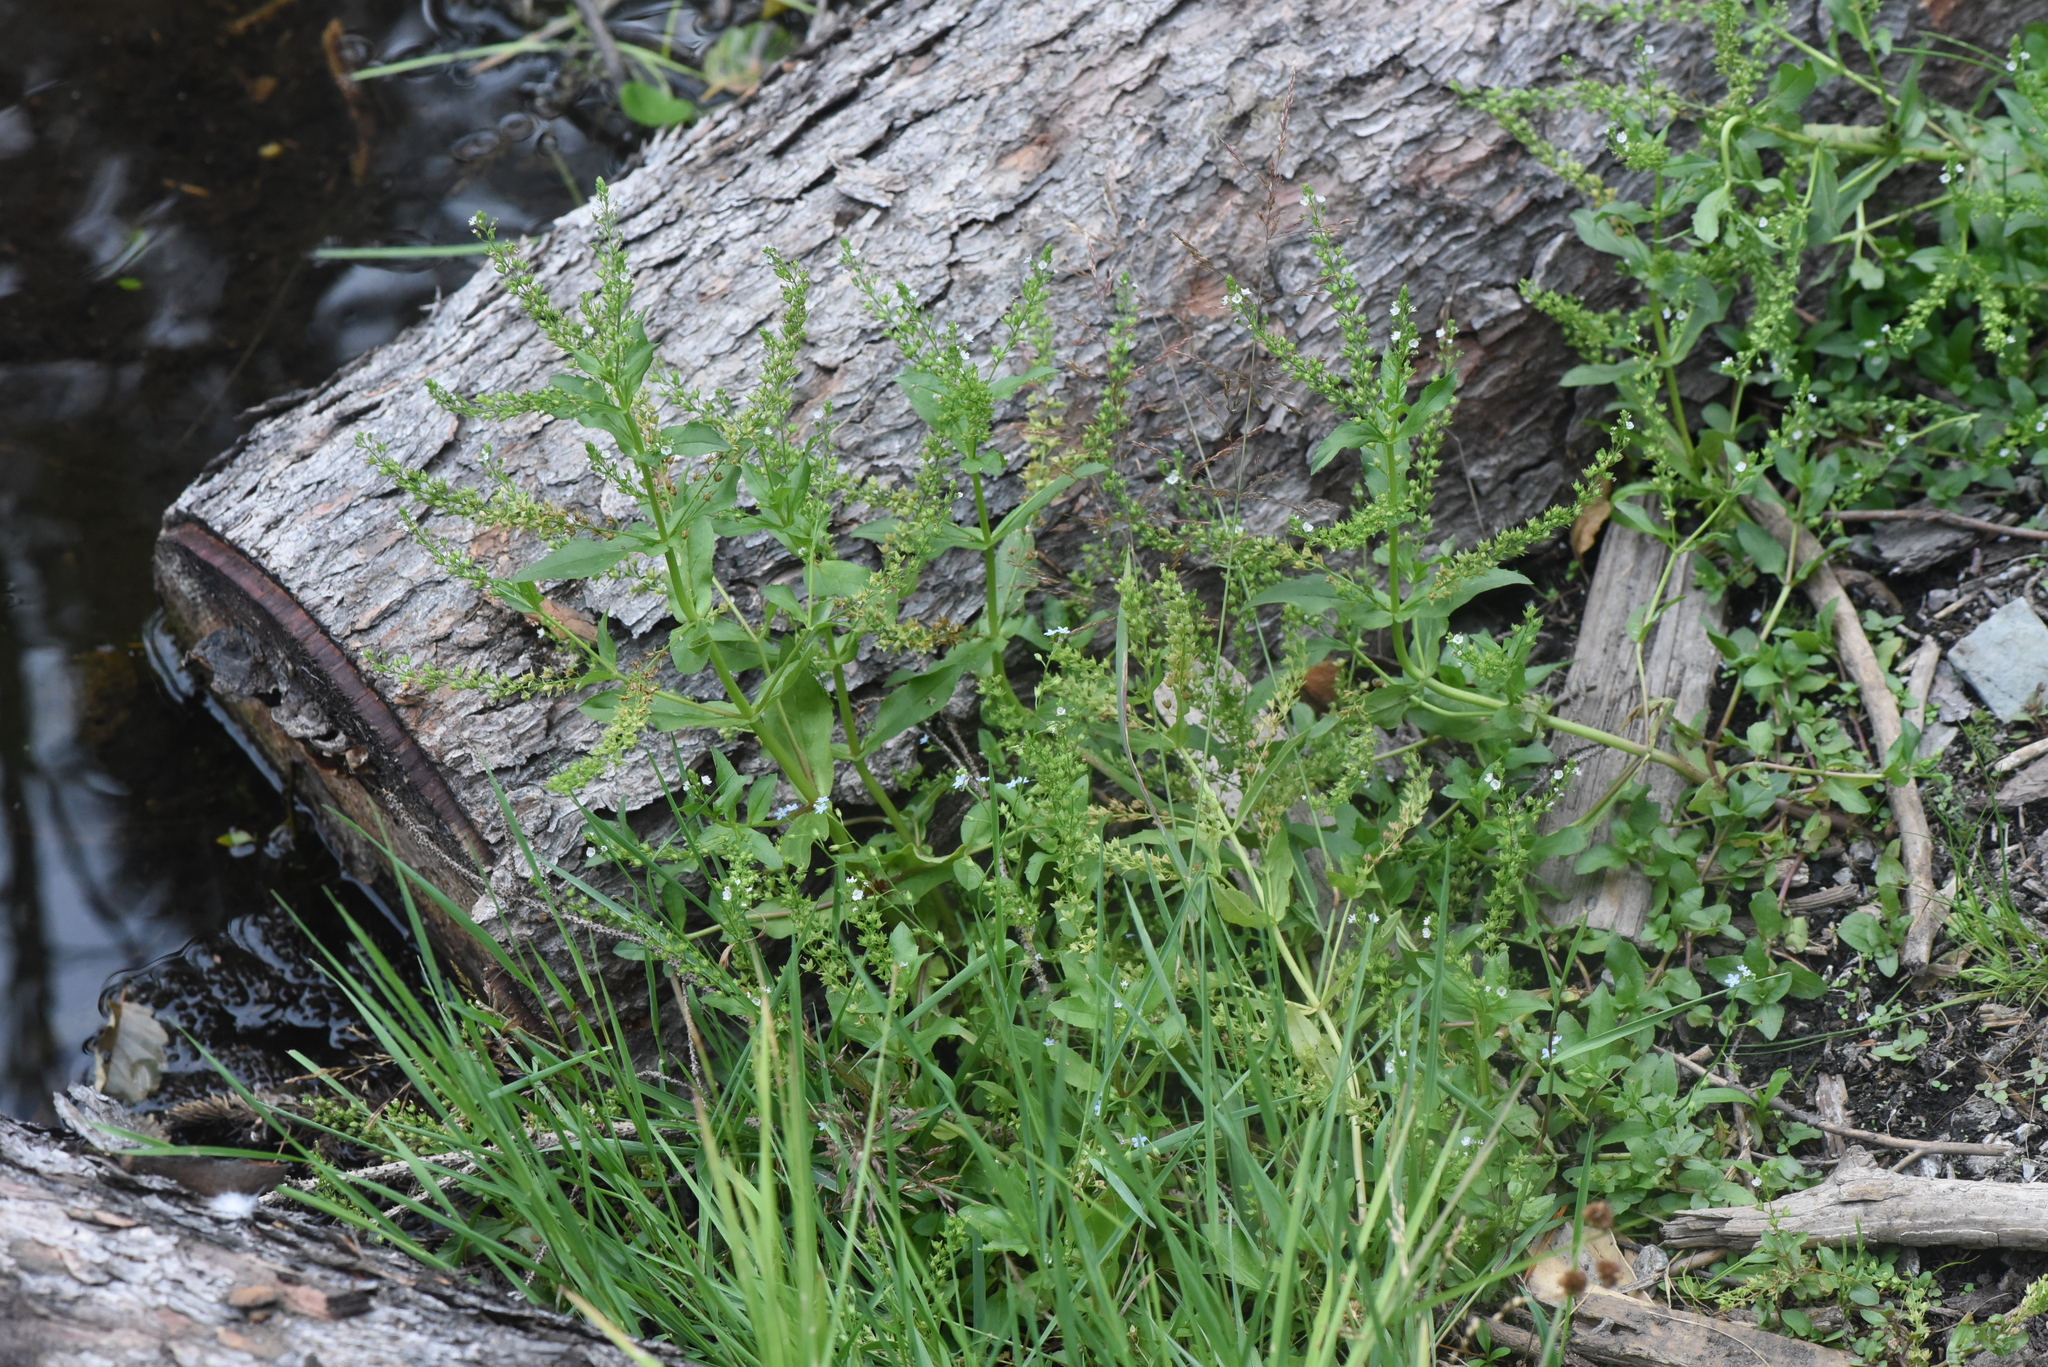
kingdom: Plantae
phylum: Tracheophyta
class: Magnoliopsida
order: Lamiales
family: Plantaginaceae
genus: Veronica
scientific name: Veronica catenata
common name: Pink water-speedwell
